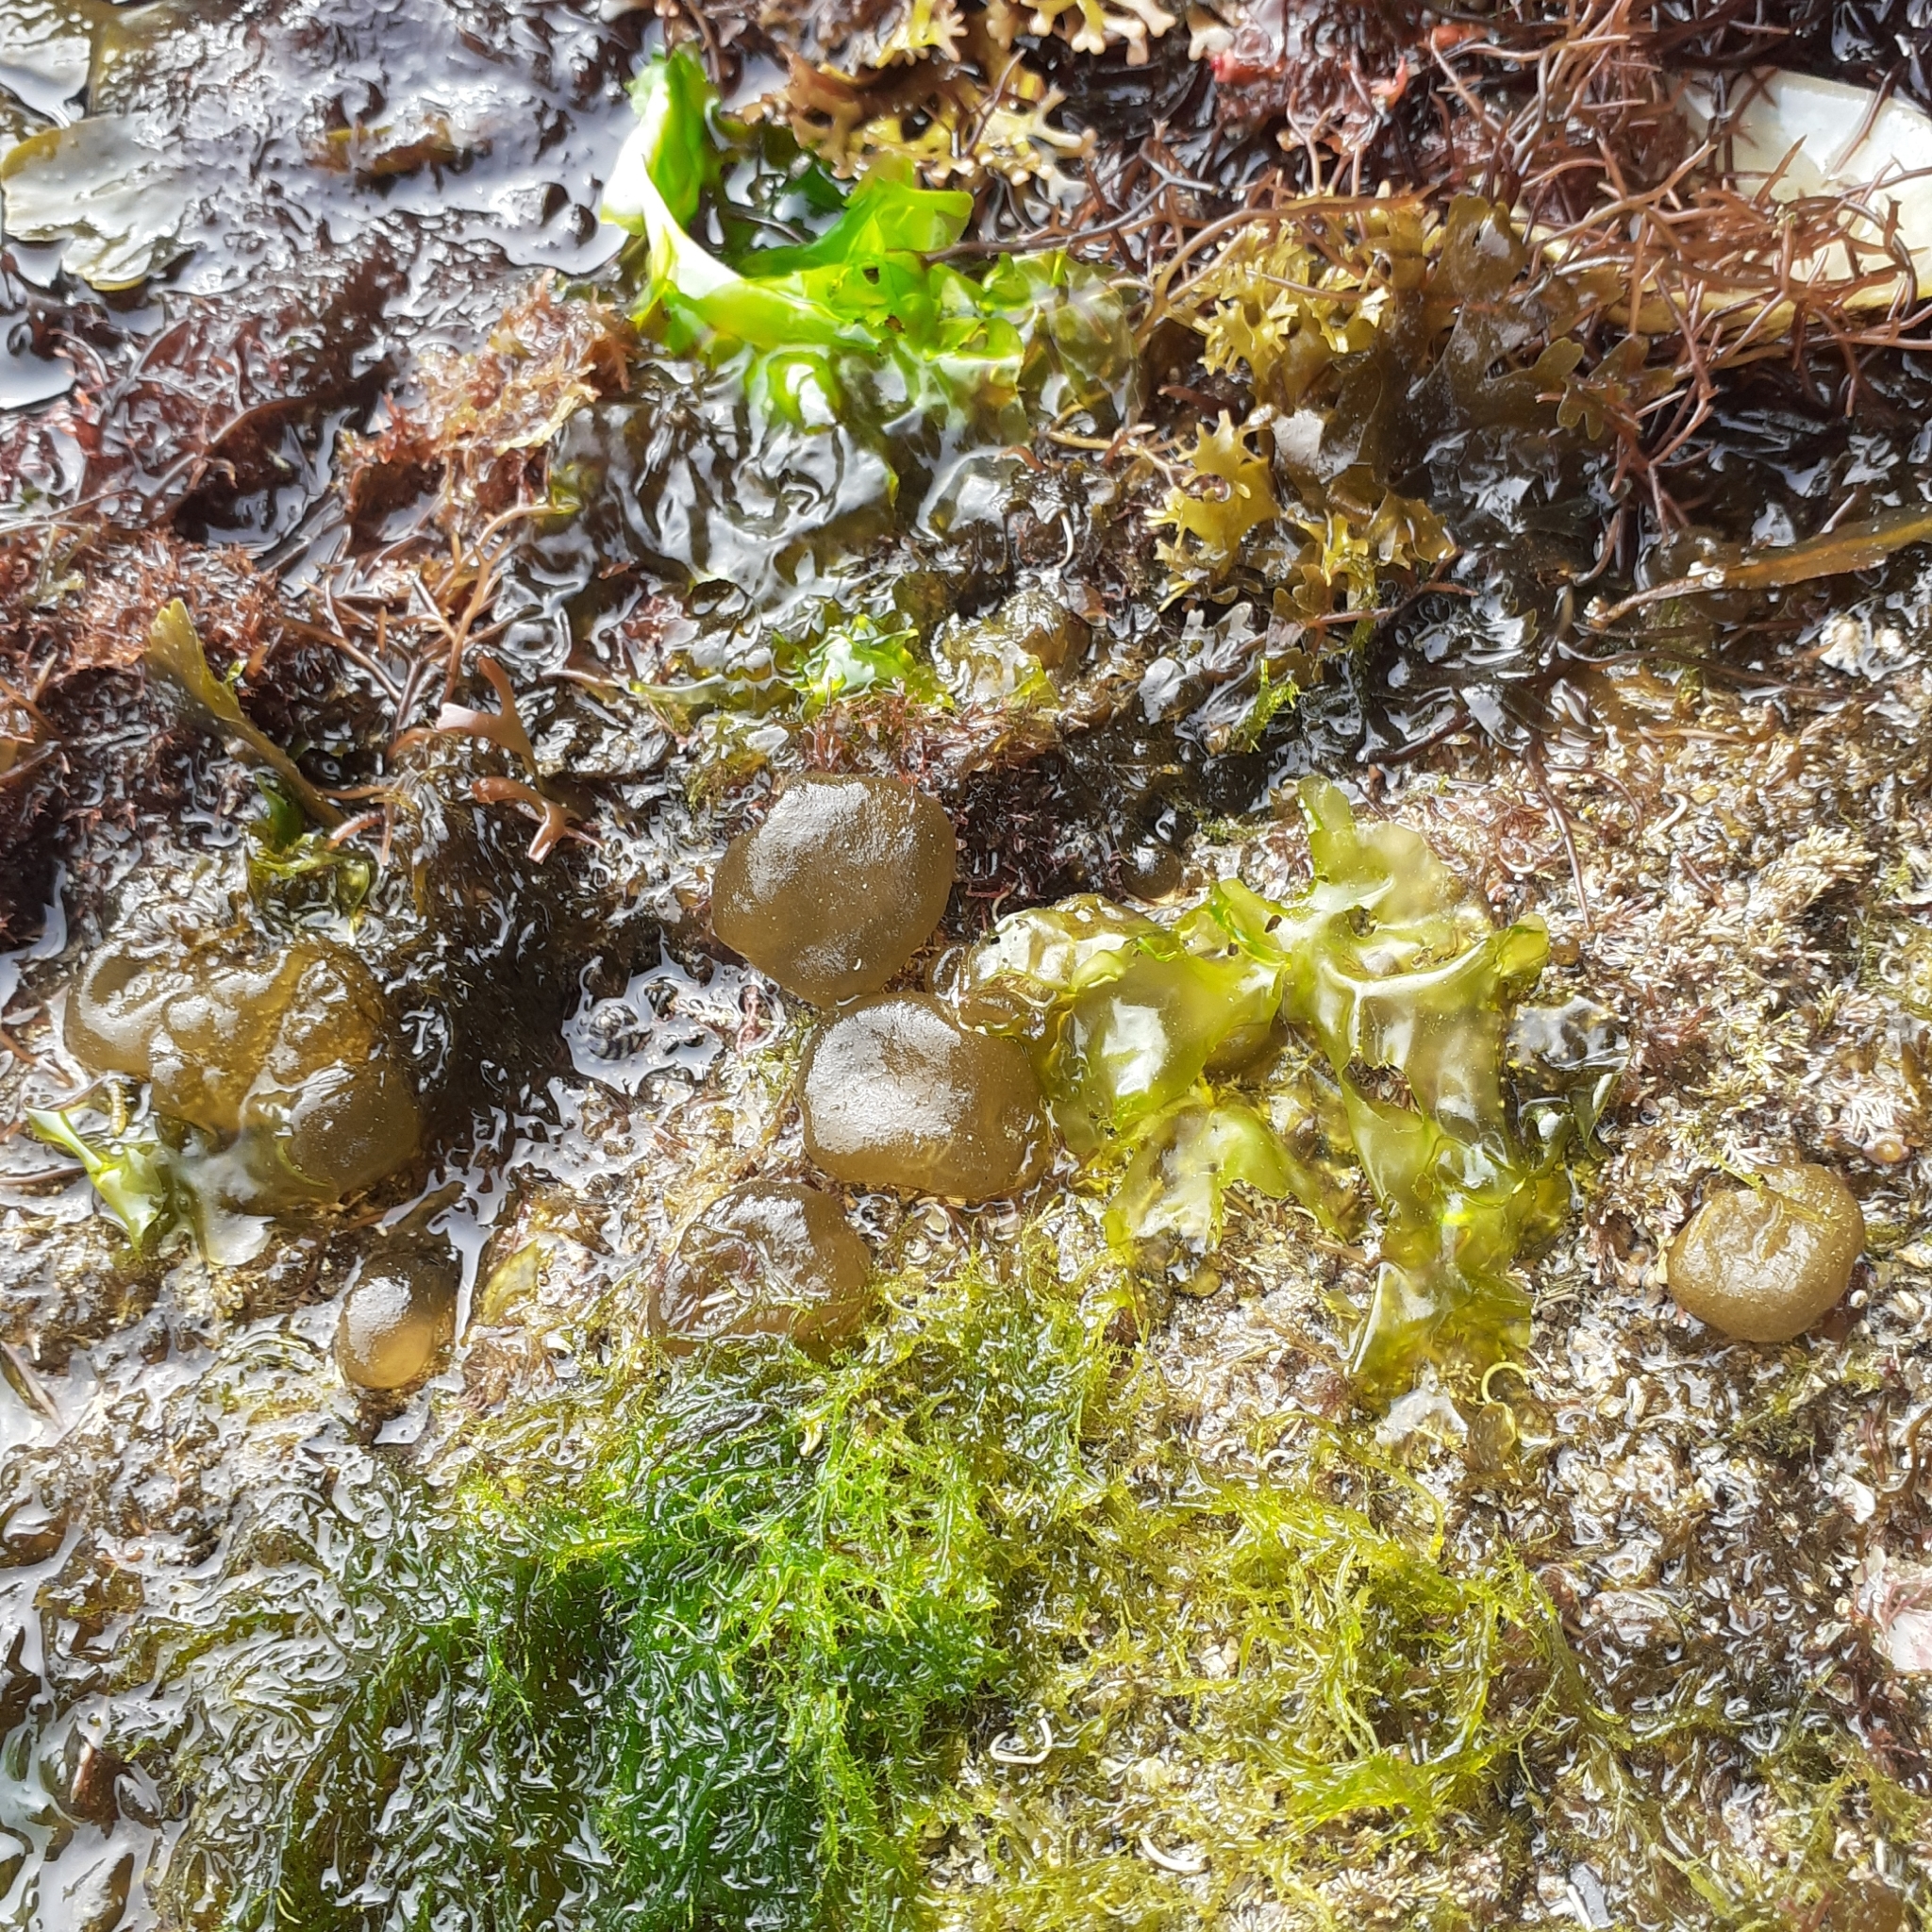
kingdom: Chromista
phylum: Ochrophyta
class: Phaeophyceae
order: Scytosiphonales
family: Scytosiphonaceae
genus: Colpomenia
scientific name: Colpomenia peregrina
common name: Oyster thief
